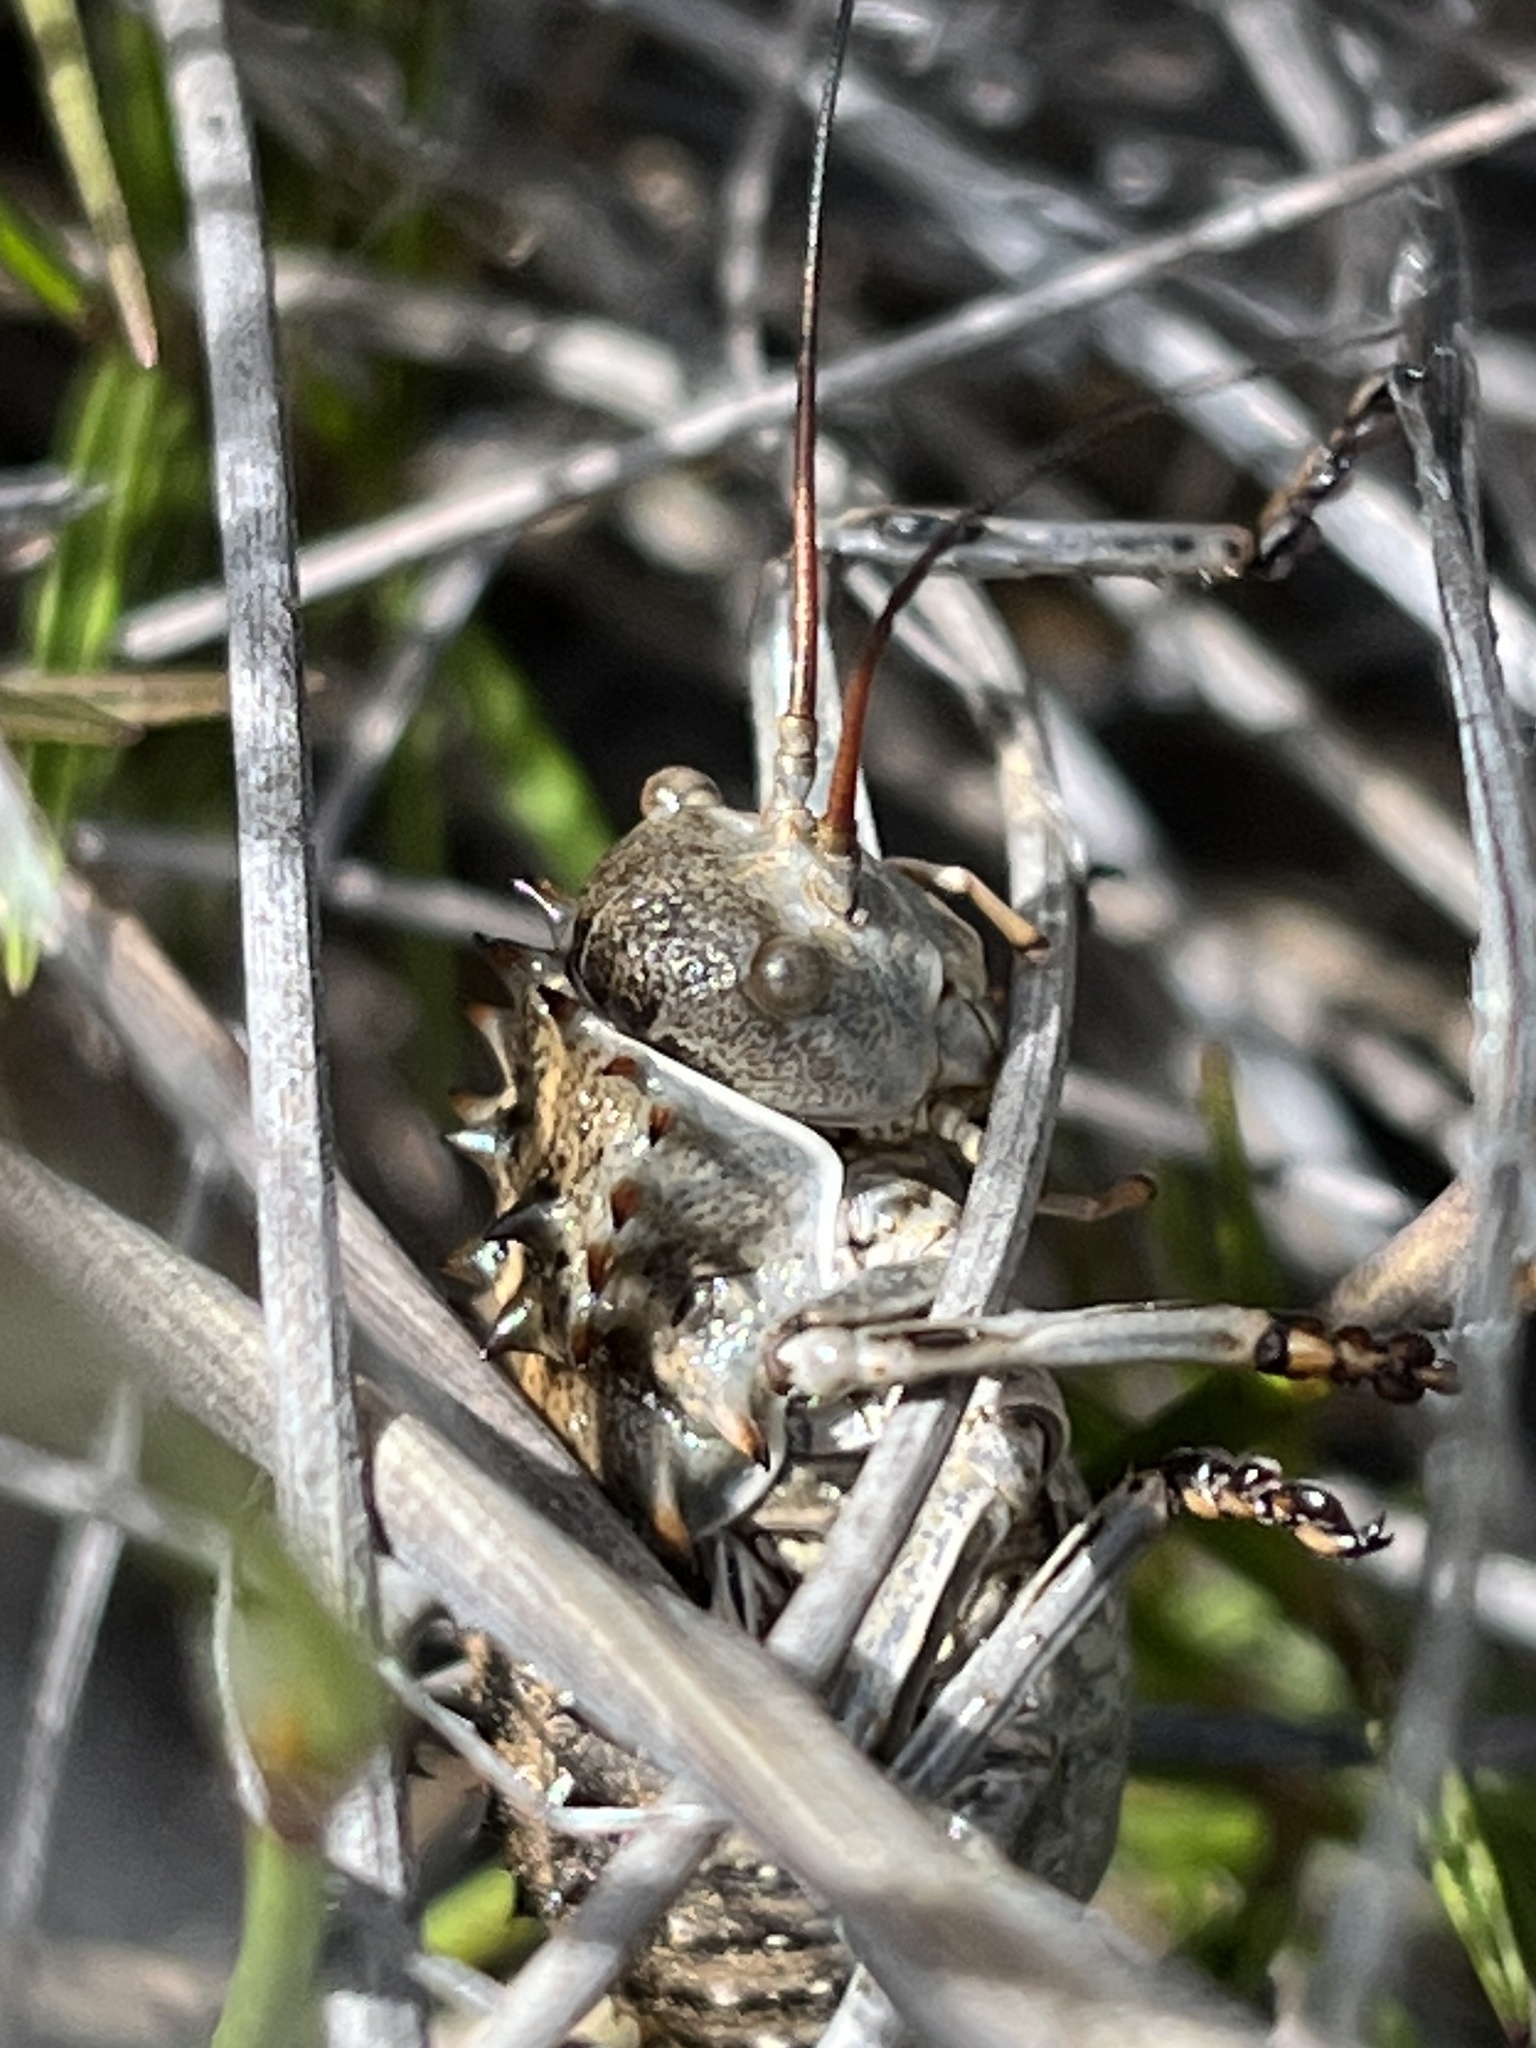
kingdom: Animalia
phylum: Arthropoda
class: Insecta
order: Orthoptera
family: Tettigoniidae
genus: Hetrodes
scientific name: Hetrodes pupus
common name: Koringkriek
